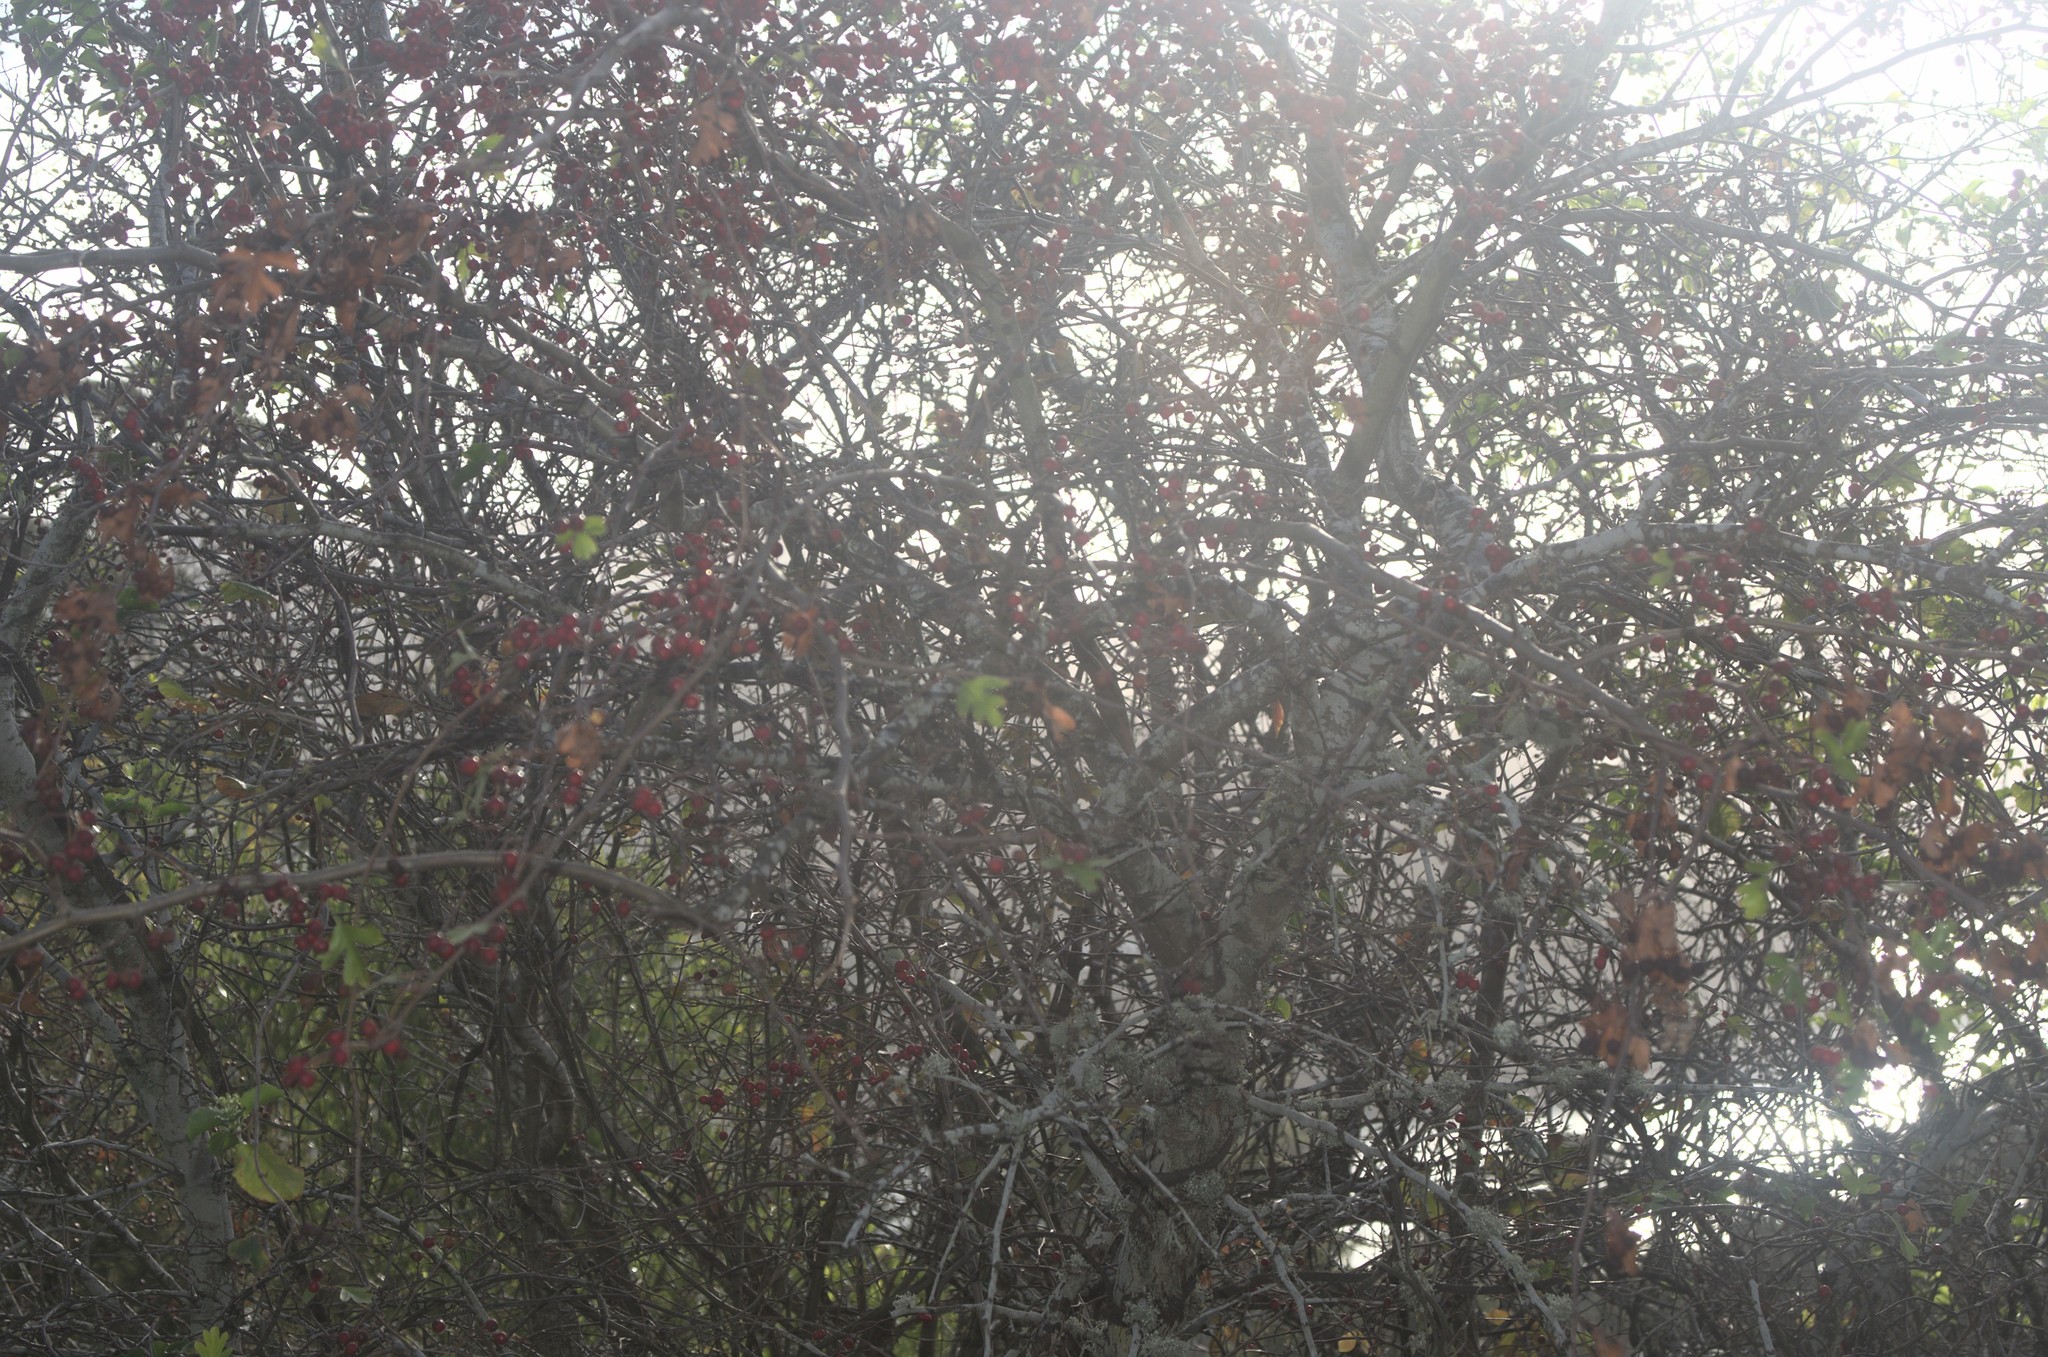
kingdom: Plantae
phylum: Tracheophyta
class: Magnoliopsida
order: Rosales
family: Rosaceae
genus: Crataegus
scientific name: Crataegus monogyna
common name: Hawthorn
